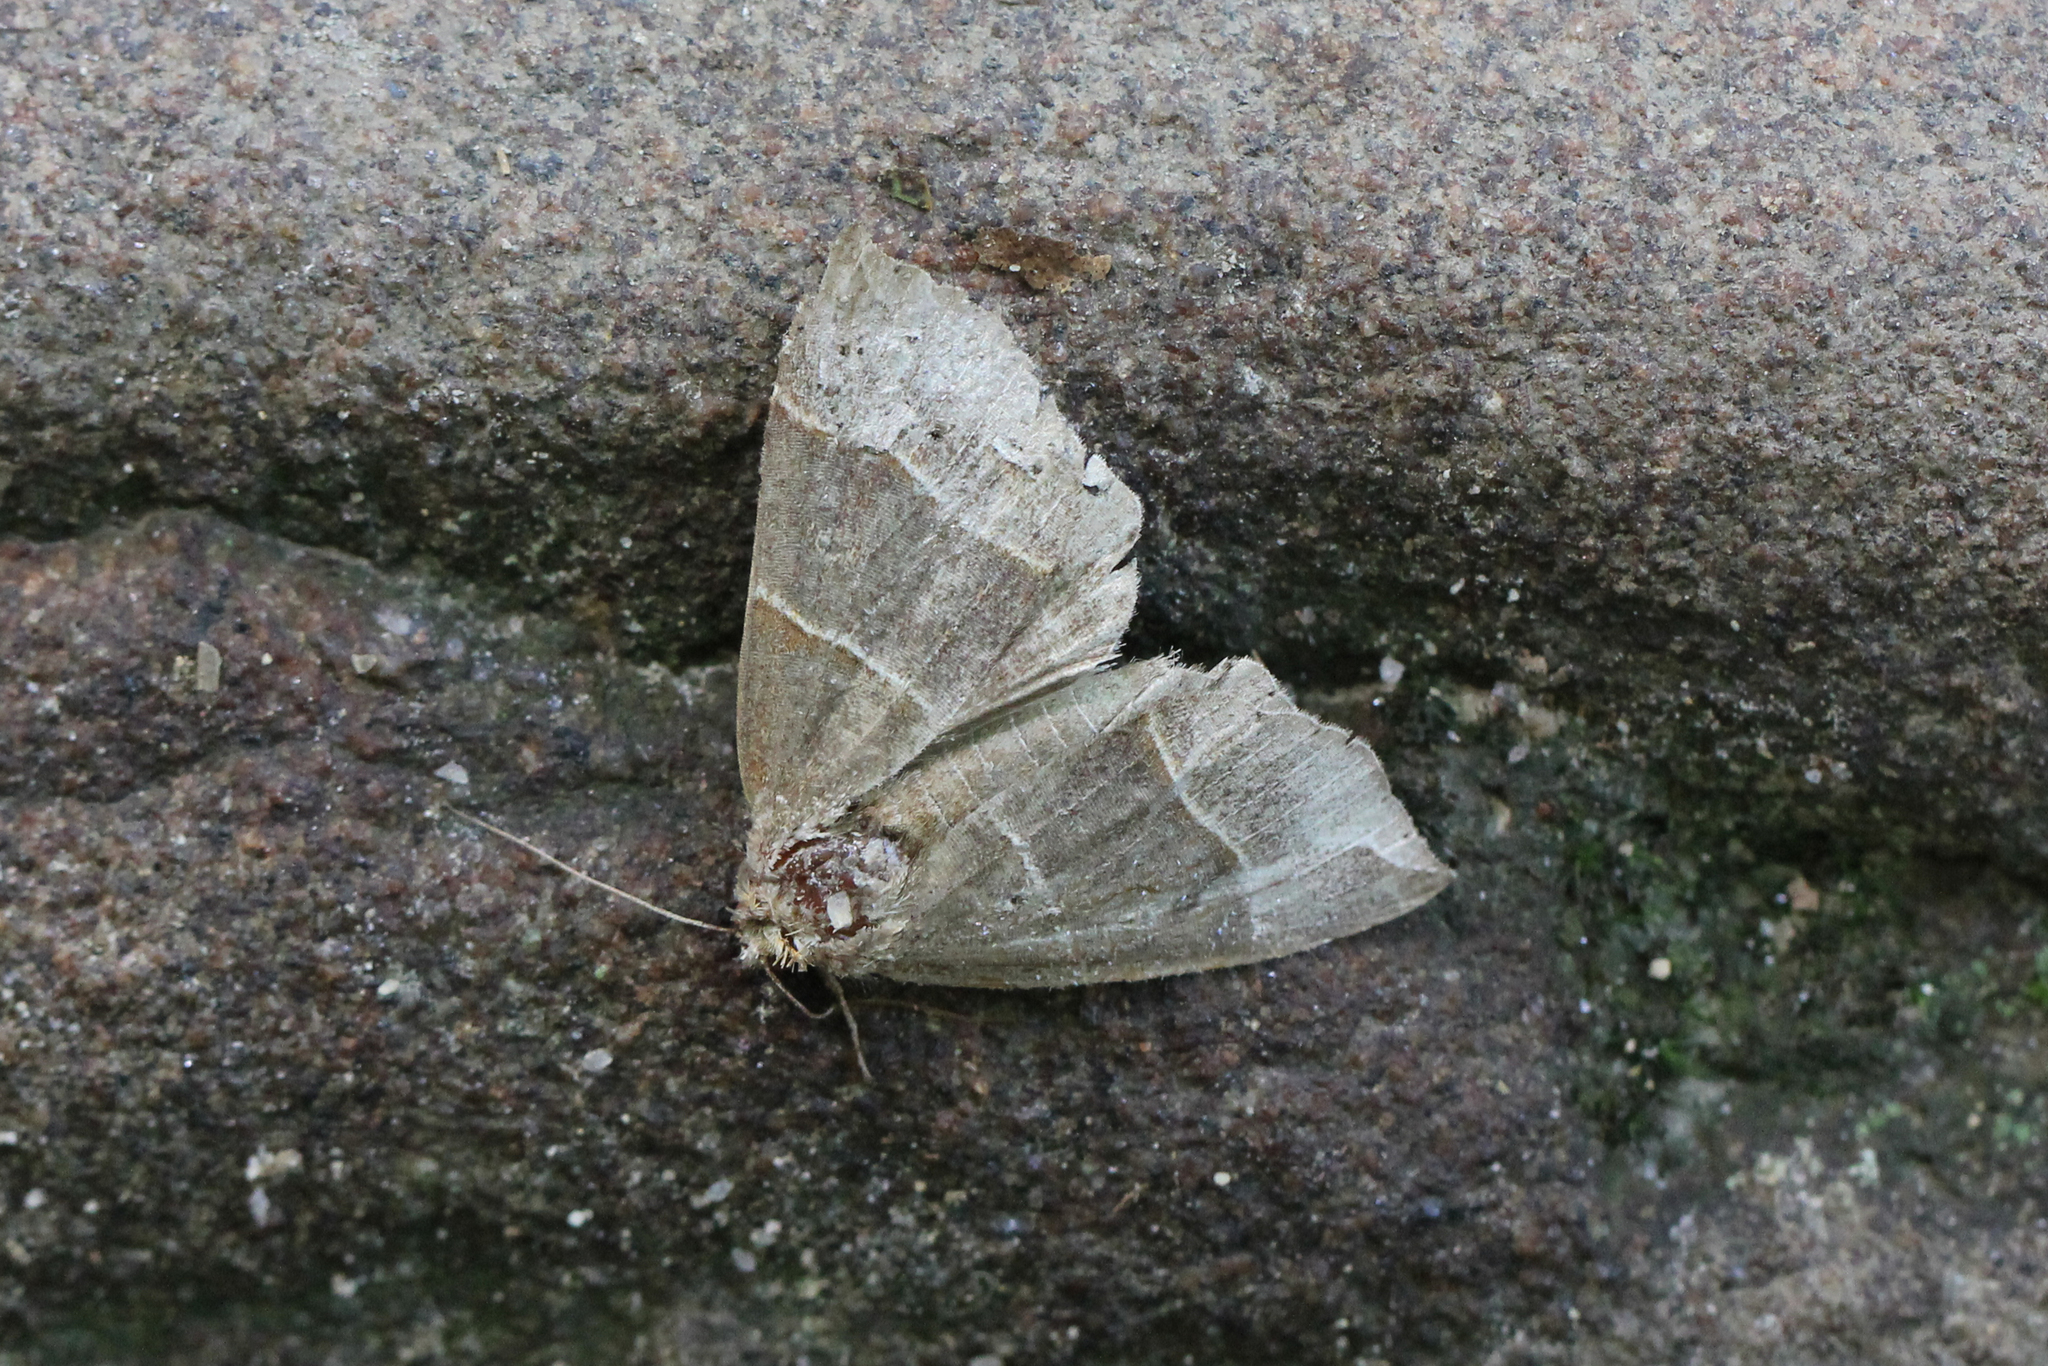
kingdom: Animalia
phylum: Arthropoda
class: Insecta
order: Lepidoptera
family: Erebidae
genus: Parallelia
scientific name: Parallelia bistriaris
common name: Maple looper moth
